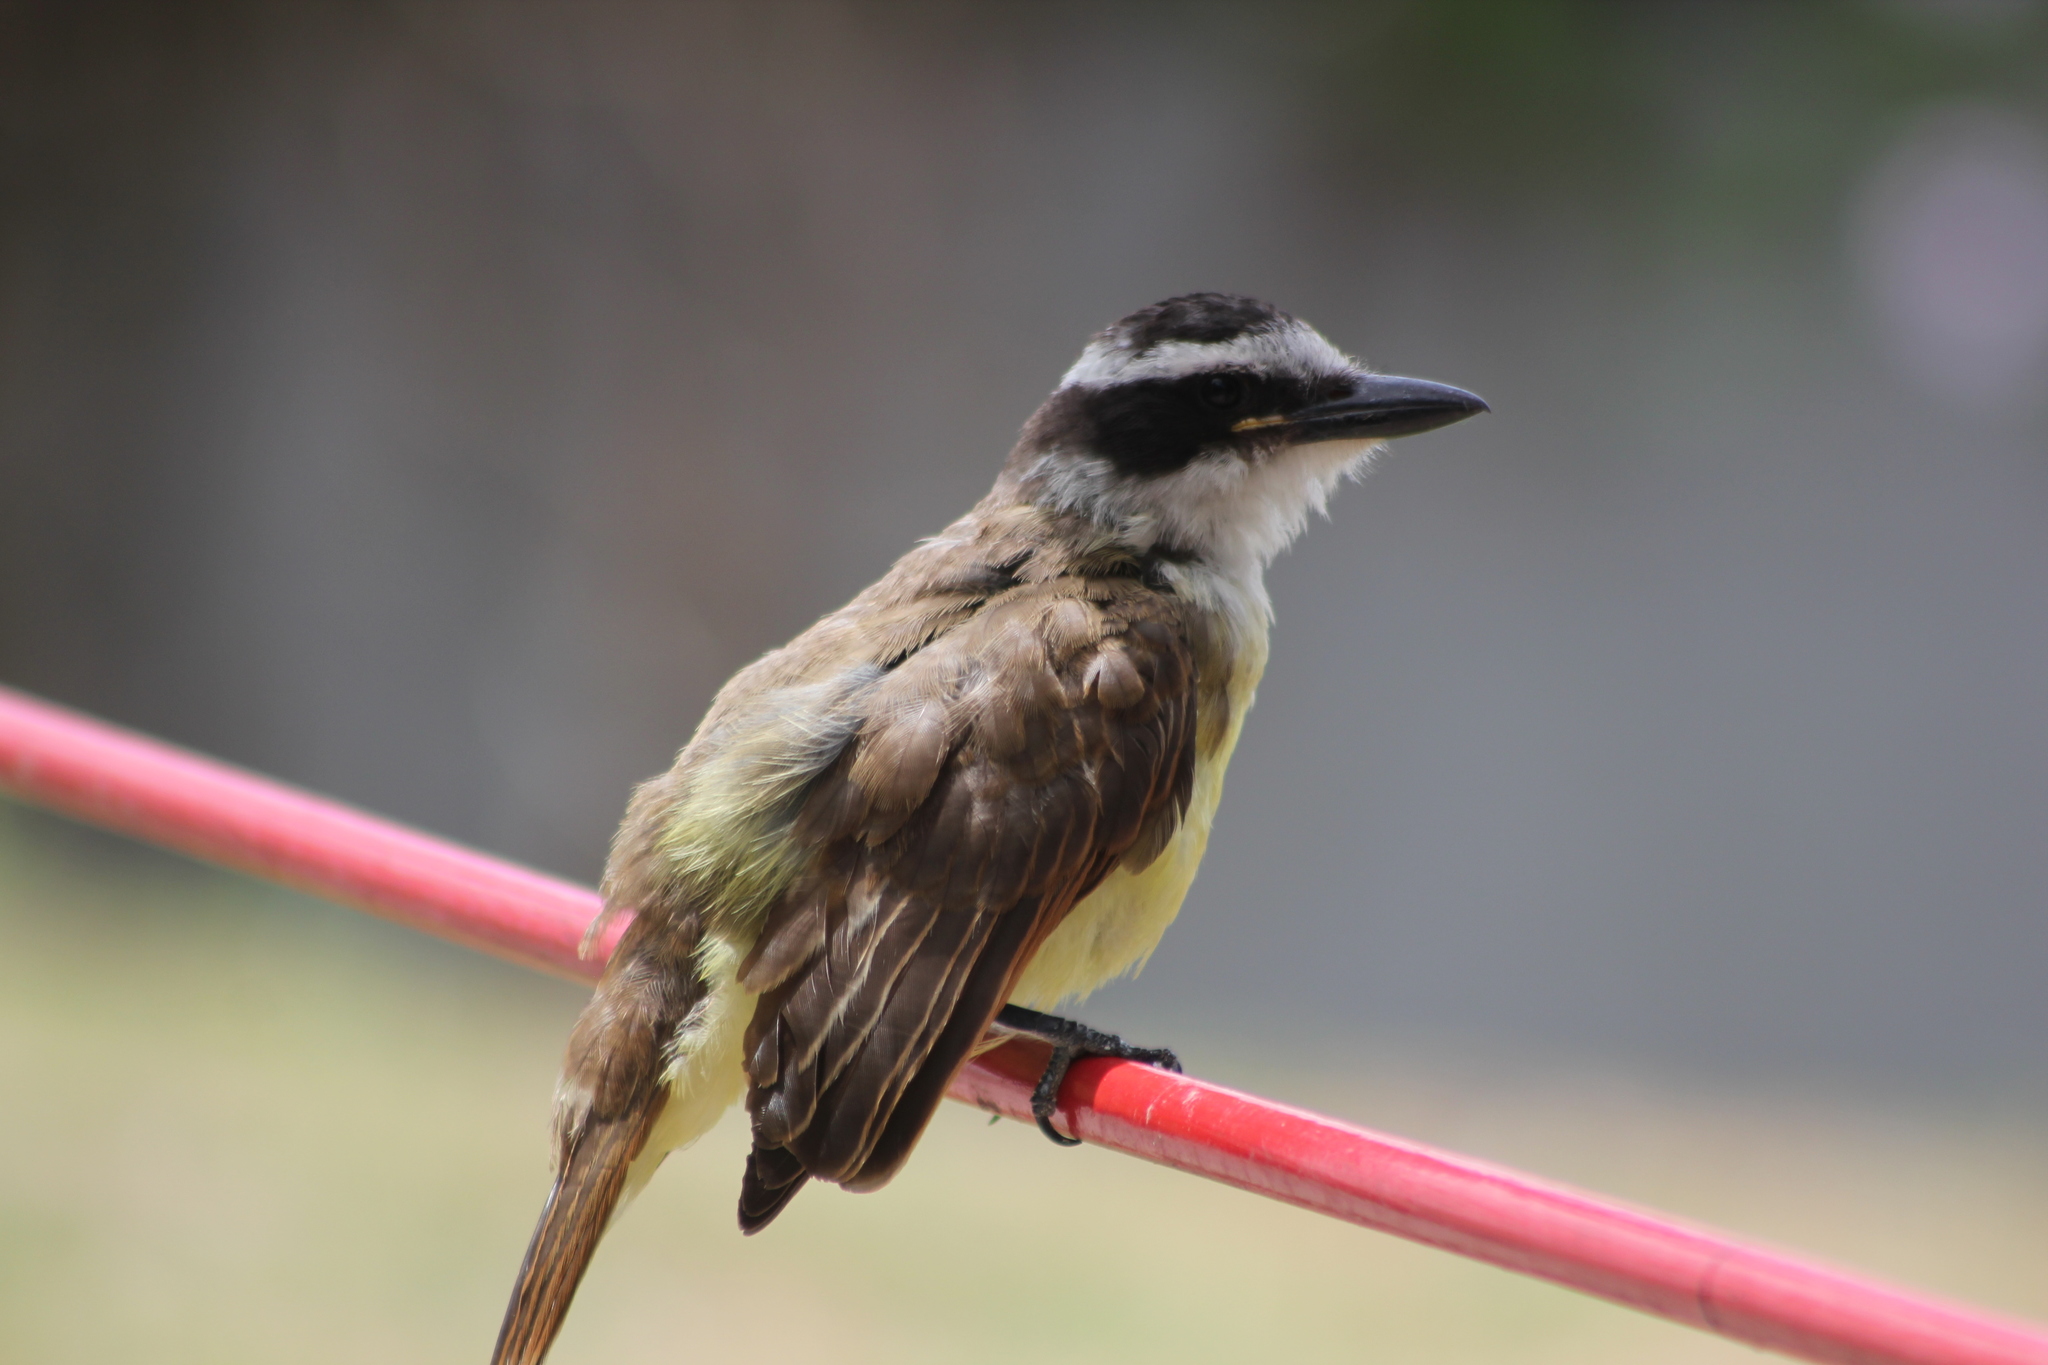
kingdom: Animalia
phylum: Chordata
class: Aves
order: Passeriformes
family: Tyrannidae
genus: Pitangus
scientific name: Pitangus sulphuratus
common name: Great kiskadee
